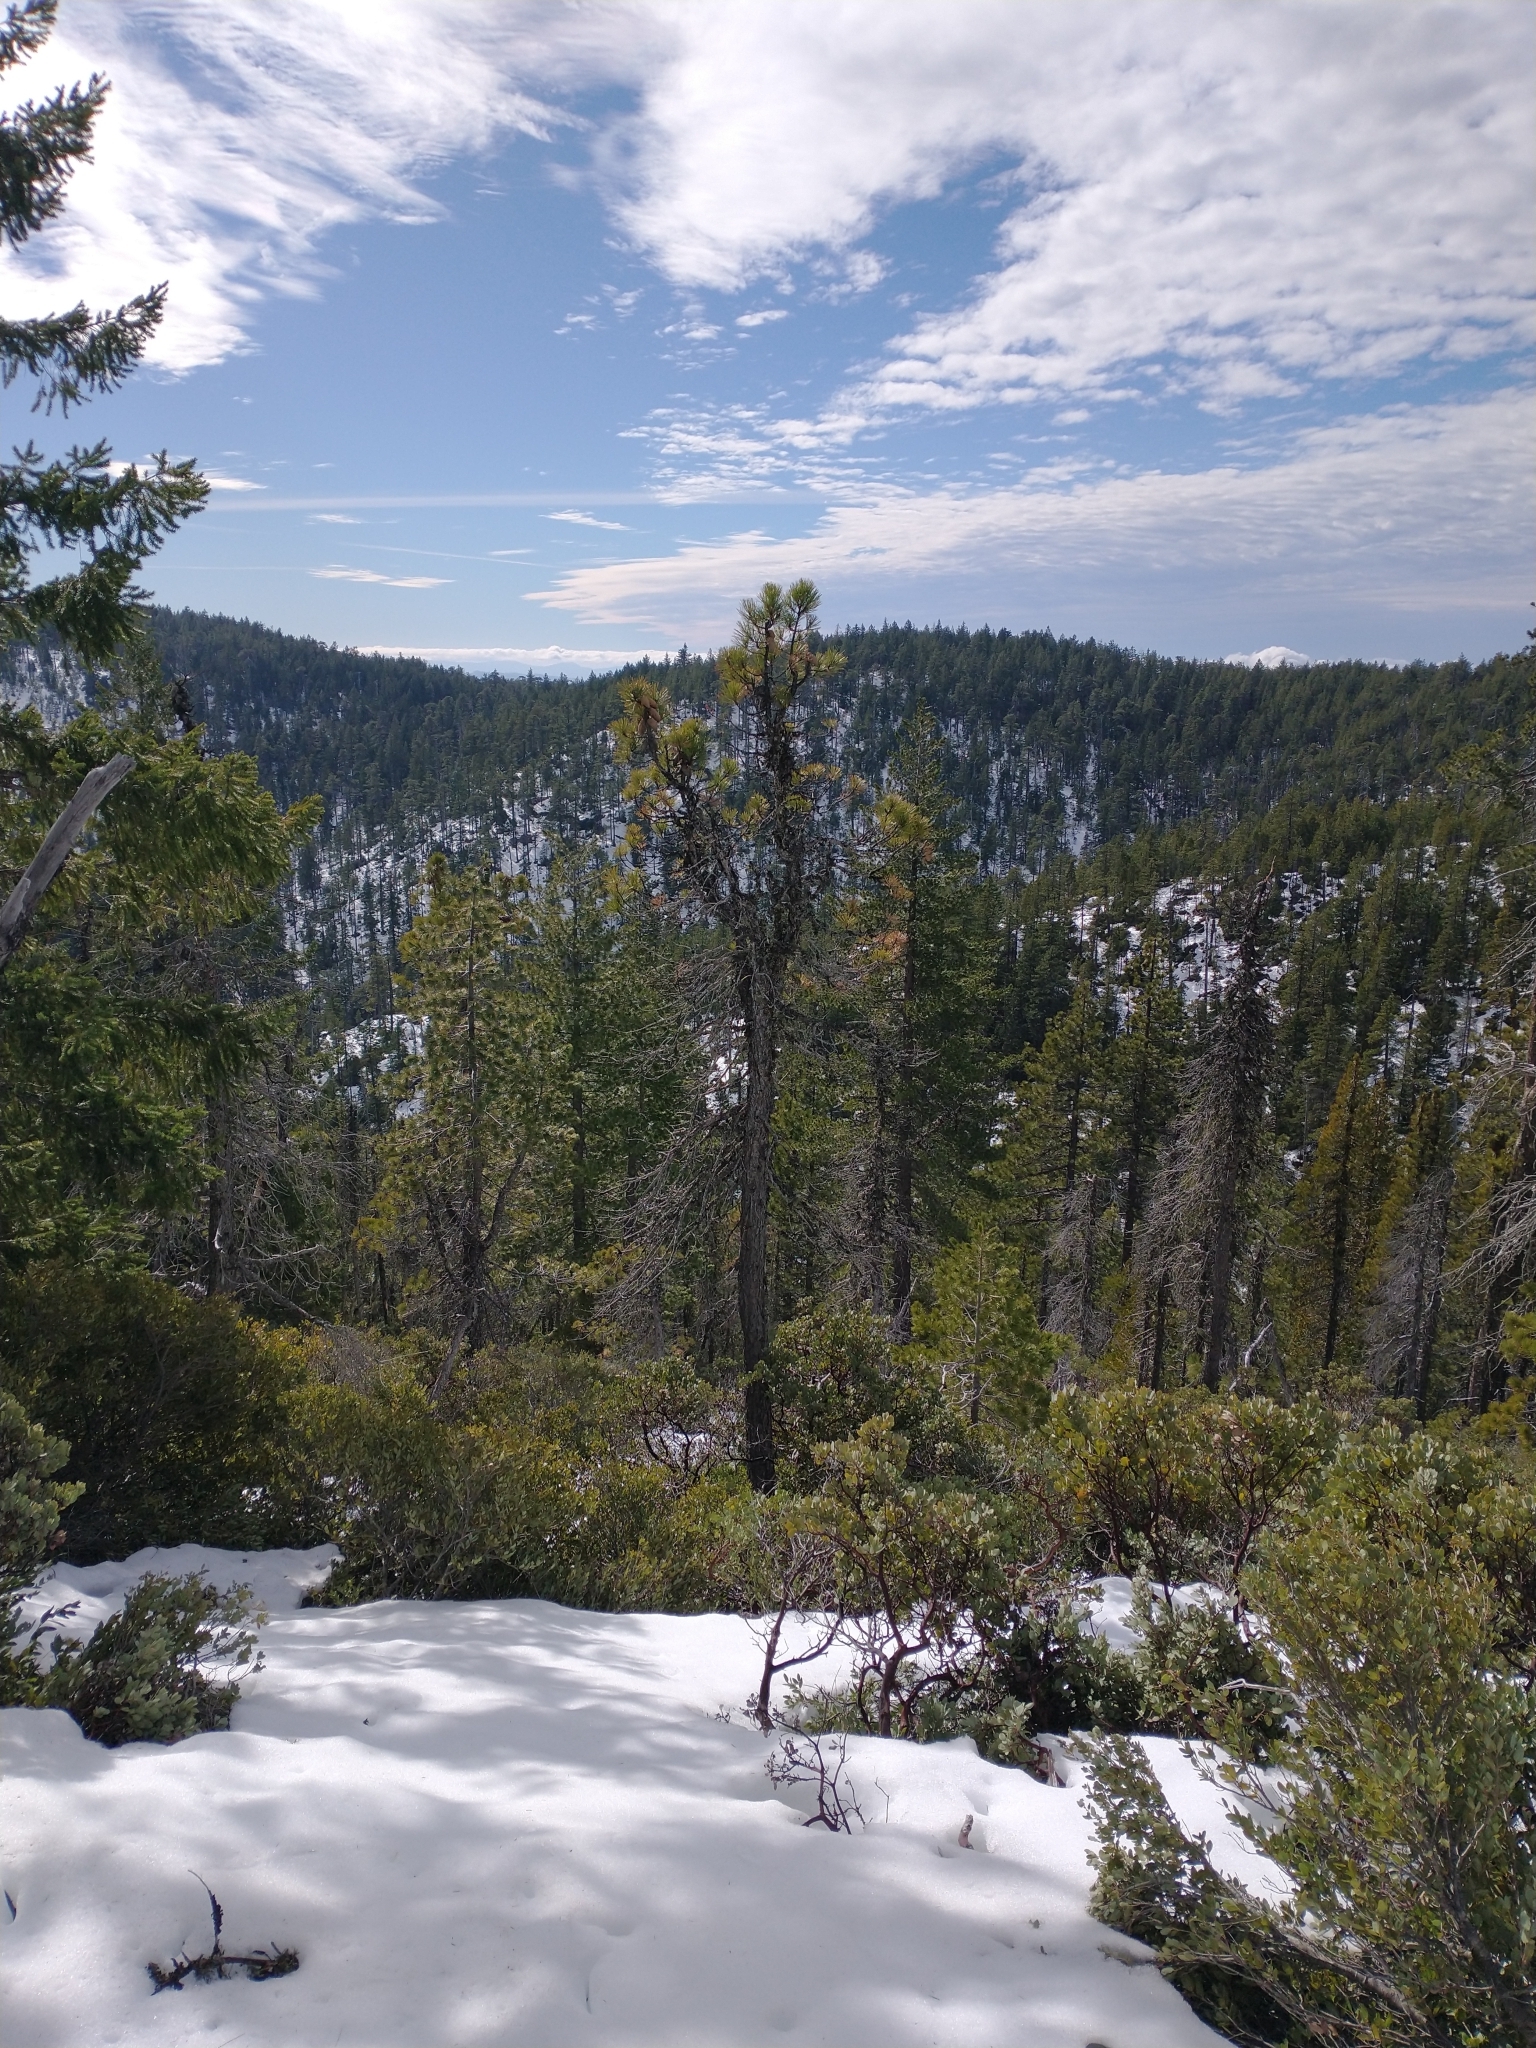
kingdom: Plantae
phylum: Tracheophyta
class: Pinopsida
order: Pinales
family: Pinaceae
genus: Pinus
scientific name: Pinus attenuata
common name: Knobcone pine
